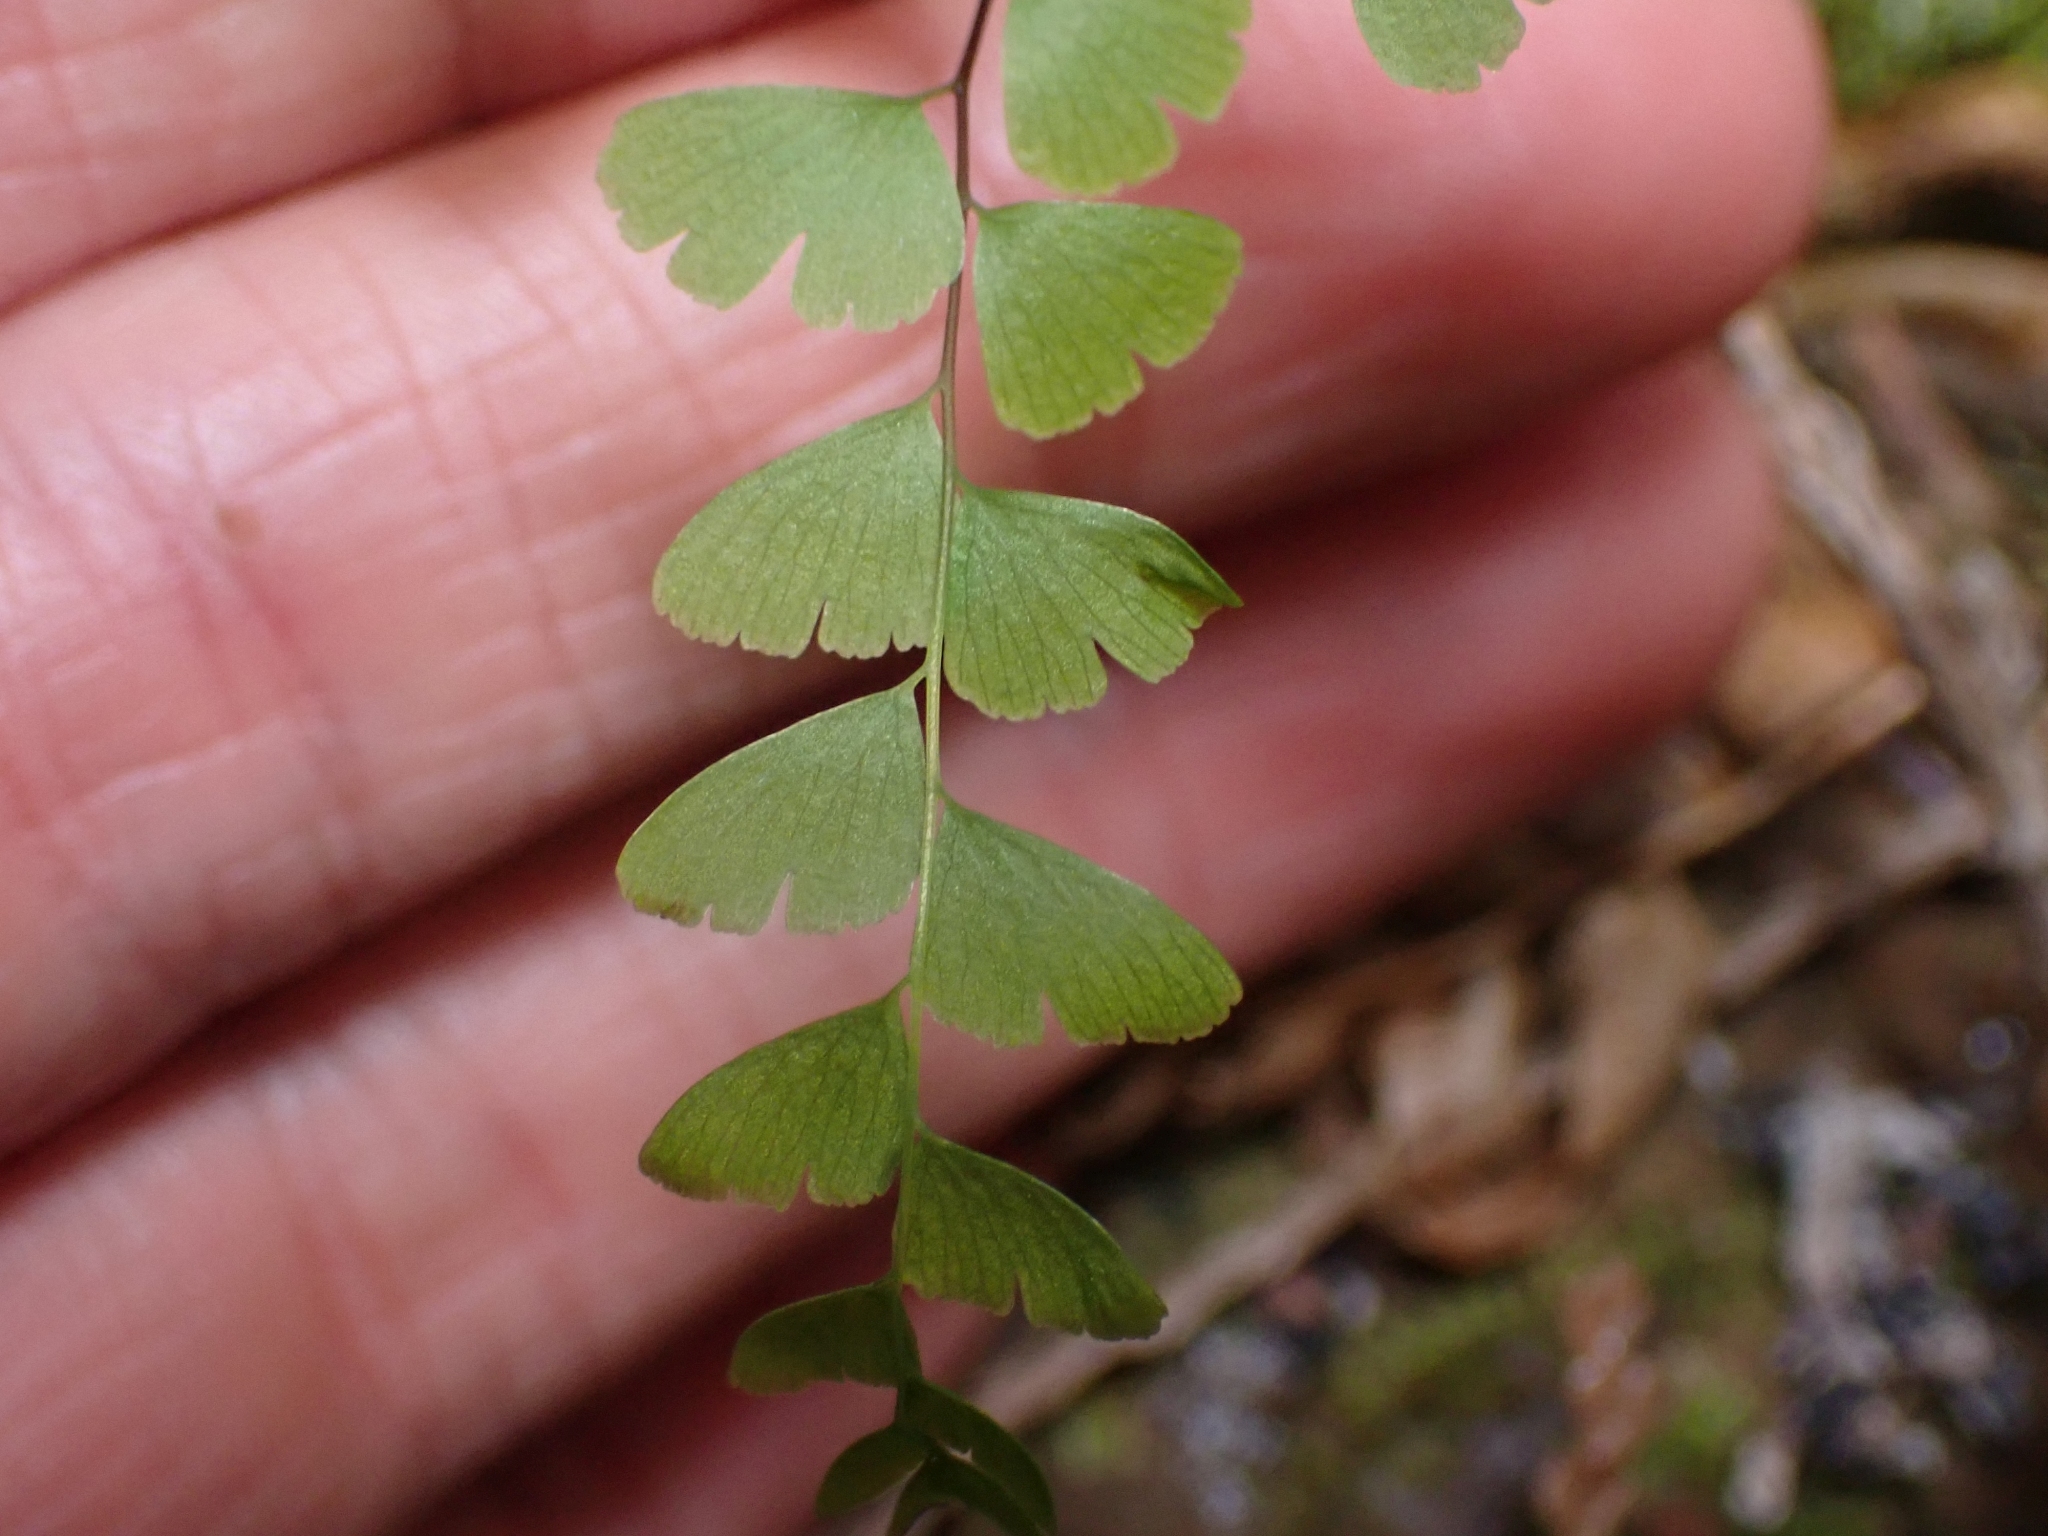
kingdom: Plantae
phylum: Tracheophyta
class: Polypodiopsida
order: Polypodiales
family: Pteridaceae
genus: Adiantum
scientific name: Adiantum aleuticum
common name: Aleutian maidenhair fern
